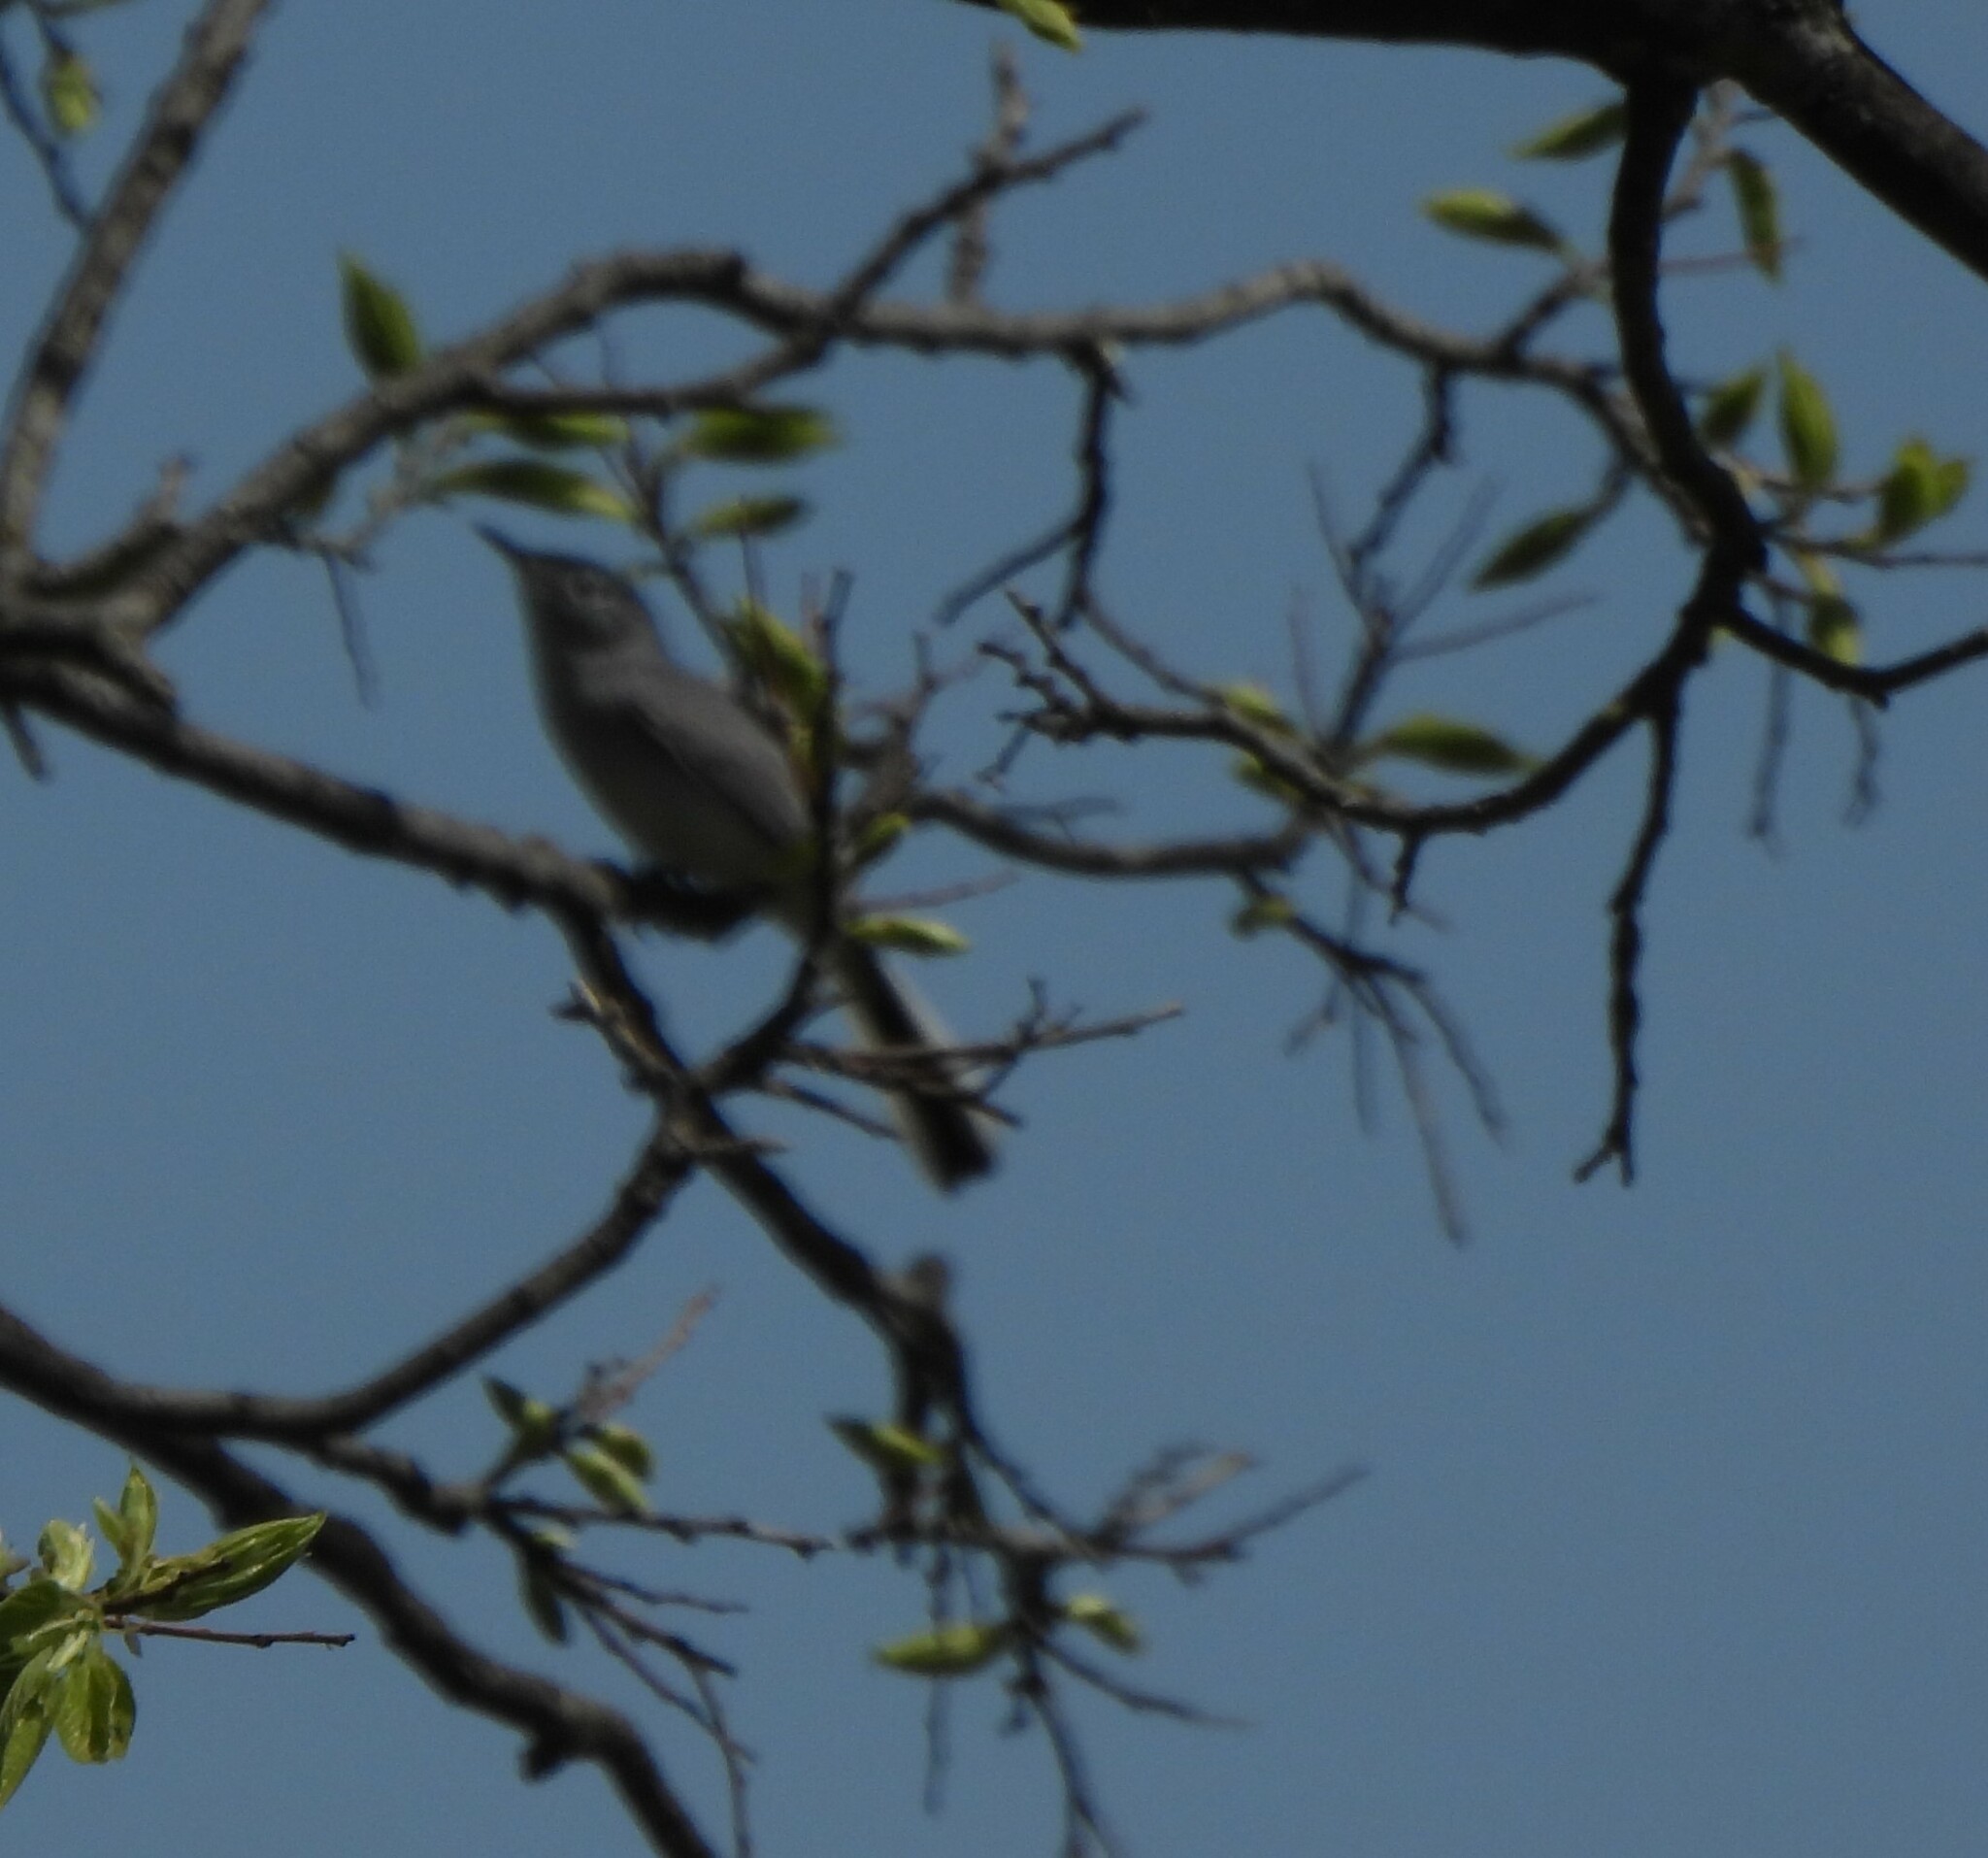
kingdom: Animalia
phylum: Chordata
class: Aves
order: Passeriformes
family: Polioptilidae
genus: Polioptila
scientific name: Polioptila caerulea
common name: Blue-gray gnatcatcher
